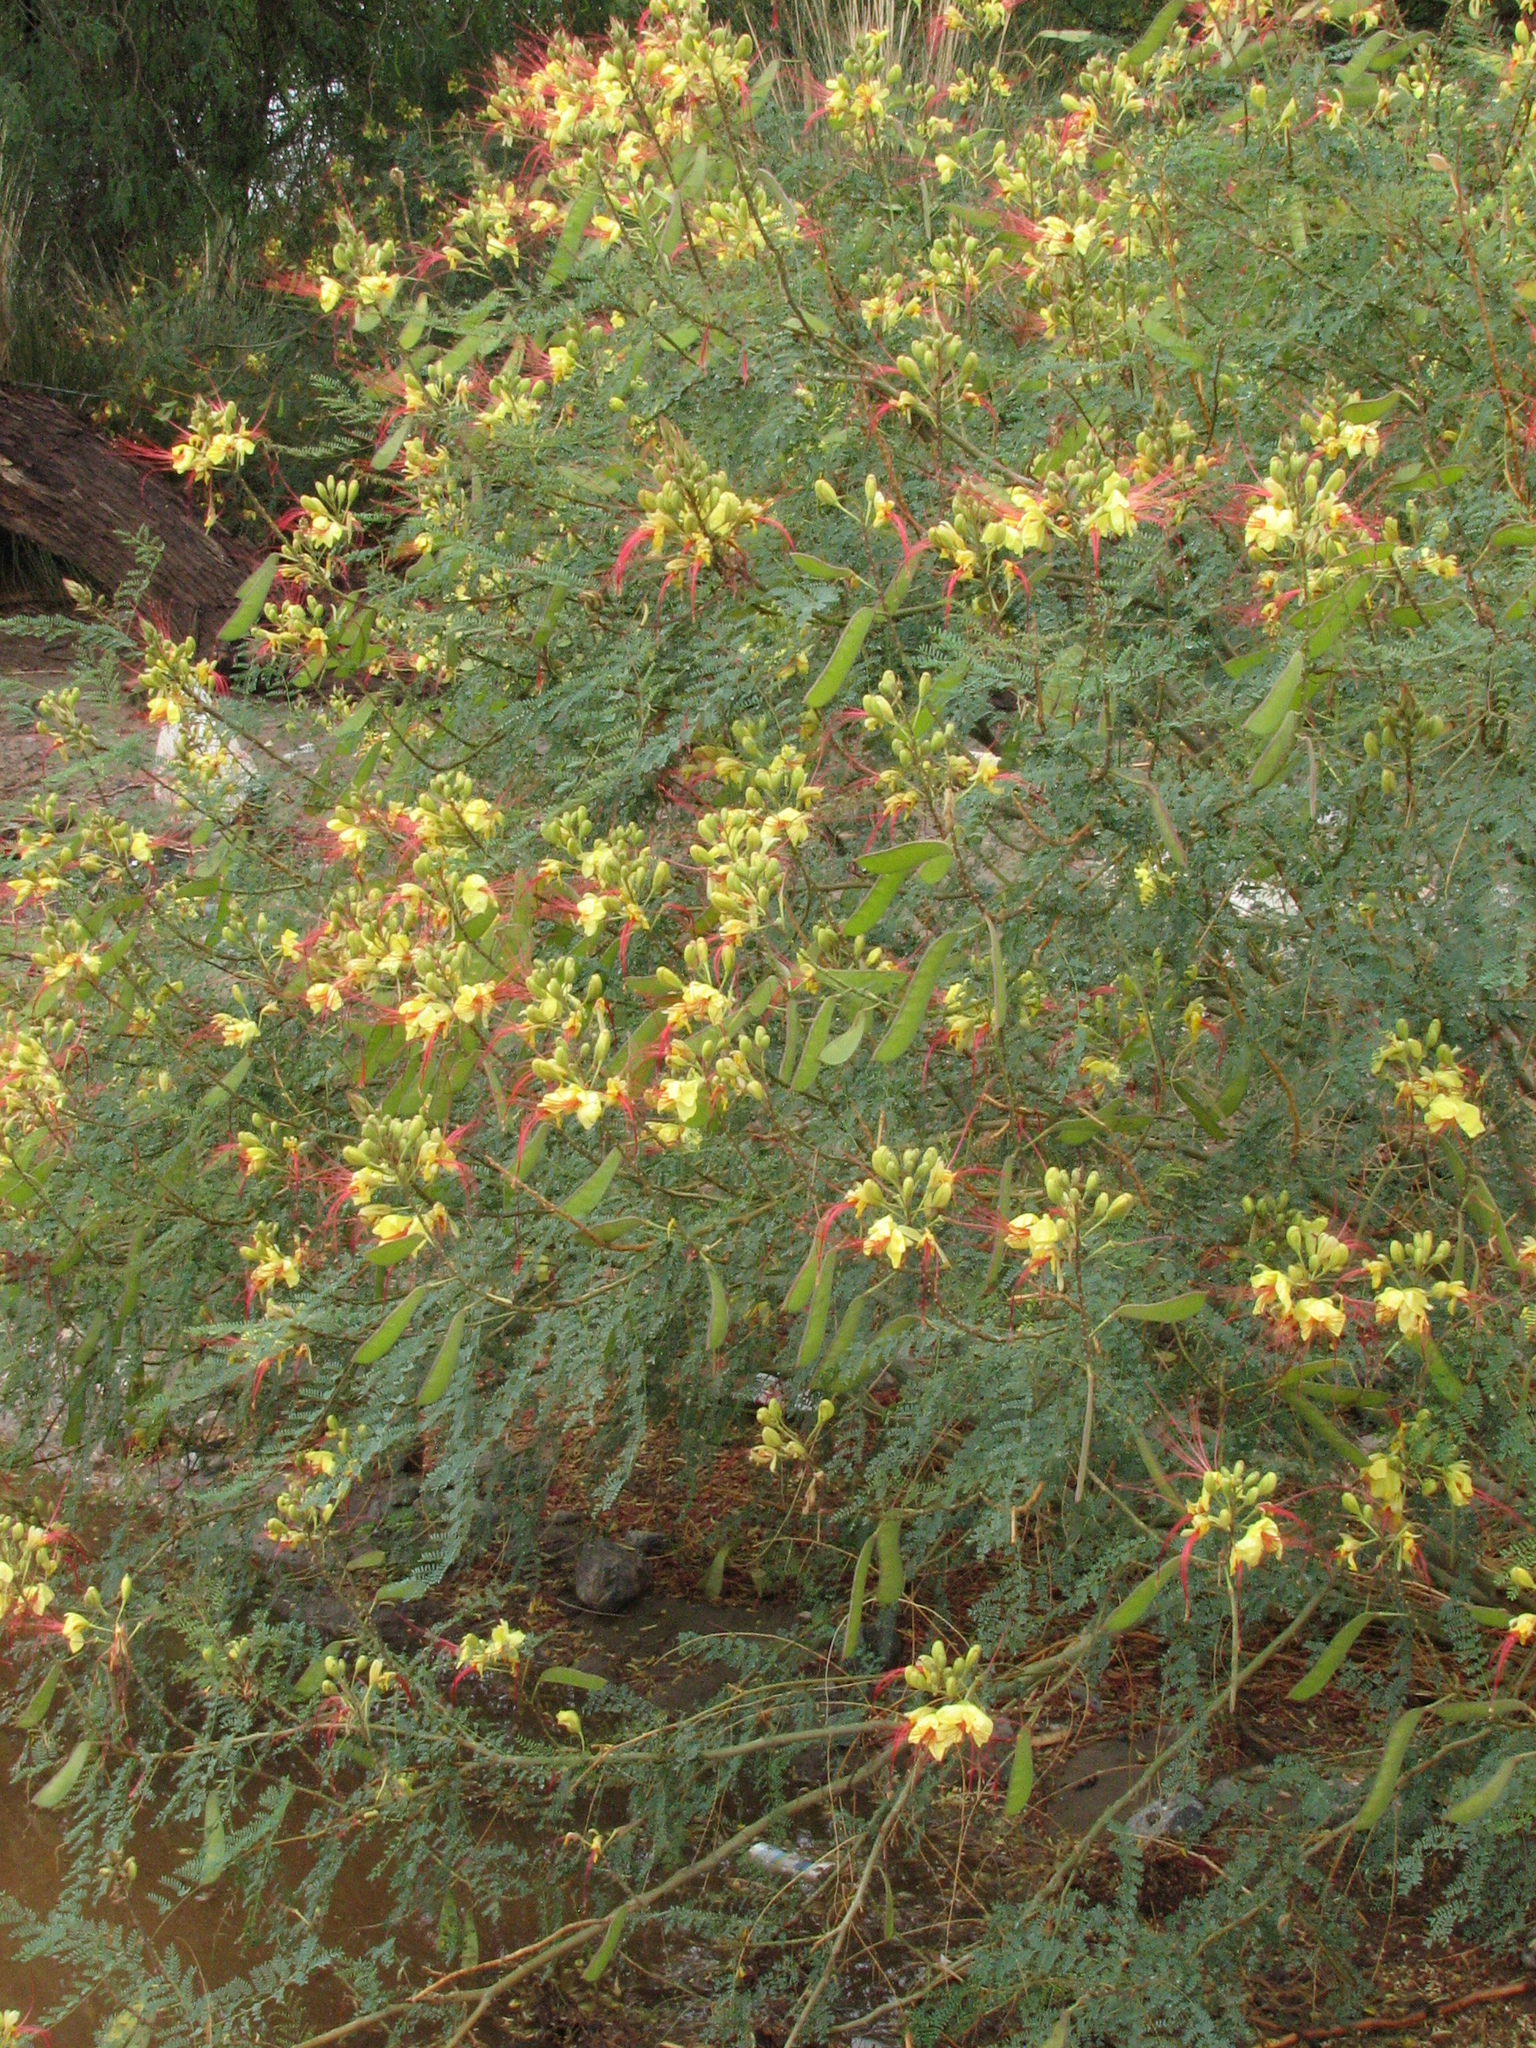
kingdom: Plantae
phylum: Tracheophyta
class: Magnoliopsida
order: Fabales
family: Fabaceae
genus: Erythrostemon
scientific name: Erythrostemon gilliesii
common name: Bird-of-paradise shrub
